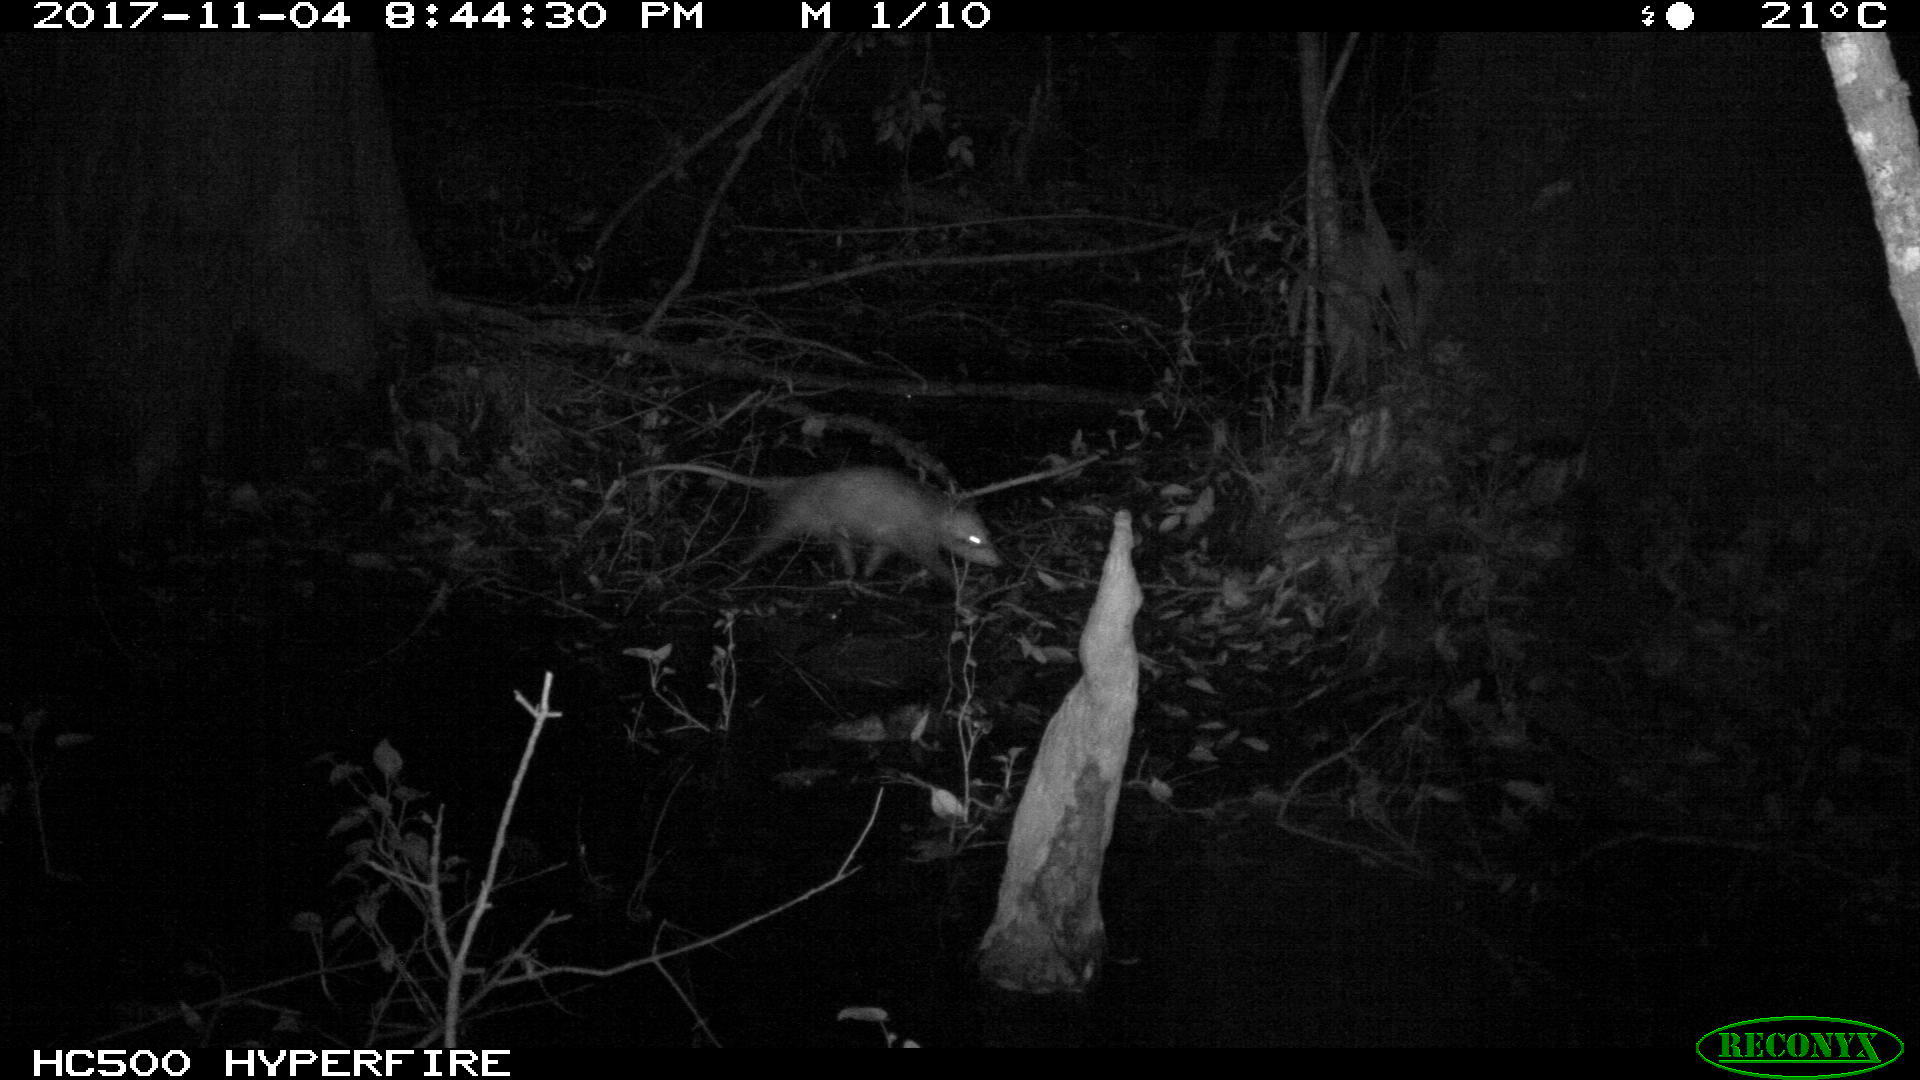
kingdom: Animalia
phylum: Chordata
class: Mammalia
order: Didelphimorphia
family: Didelphidae
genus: Didelphis
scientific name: Didelphis virginiana
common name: Virginia opossum
